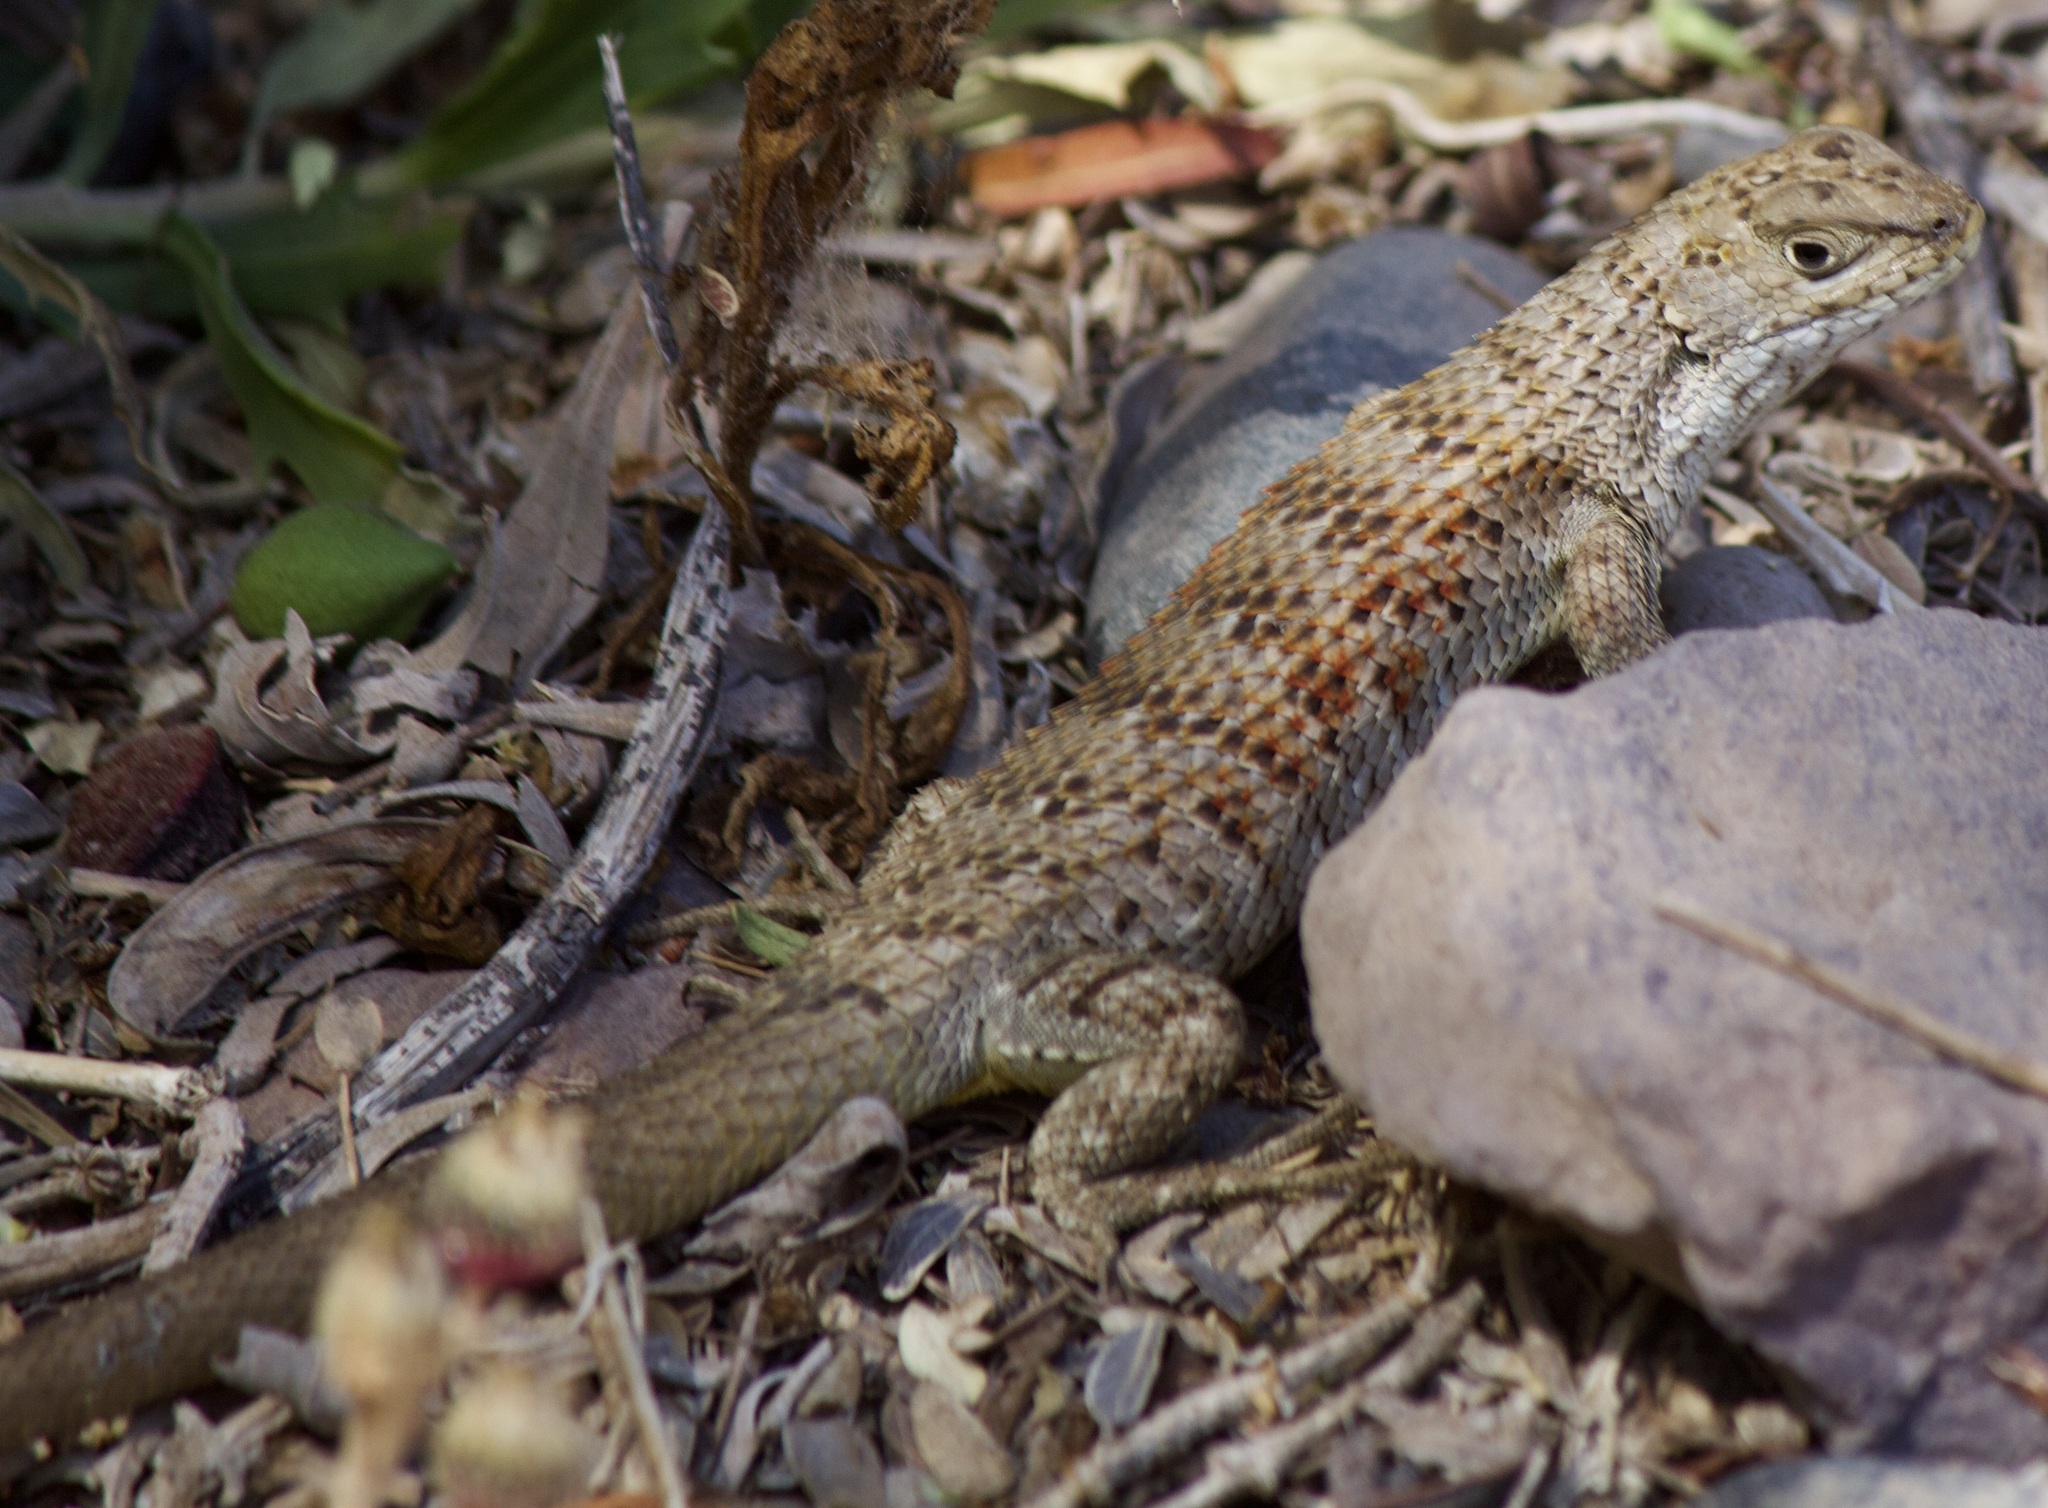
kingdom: Animalia
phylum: Chordata
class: Squamata
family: Liolaemidae
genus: Liolaemus
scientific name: Liolaemus nitidus
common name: Shining tree iguana
